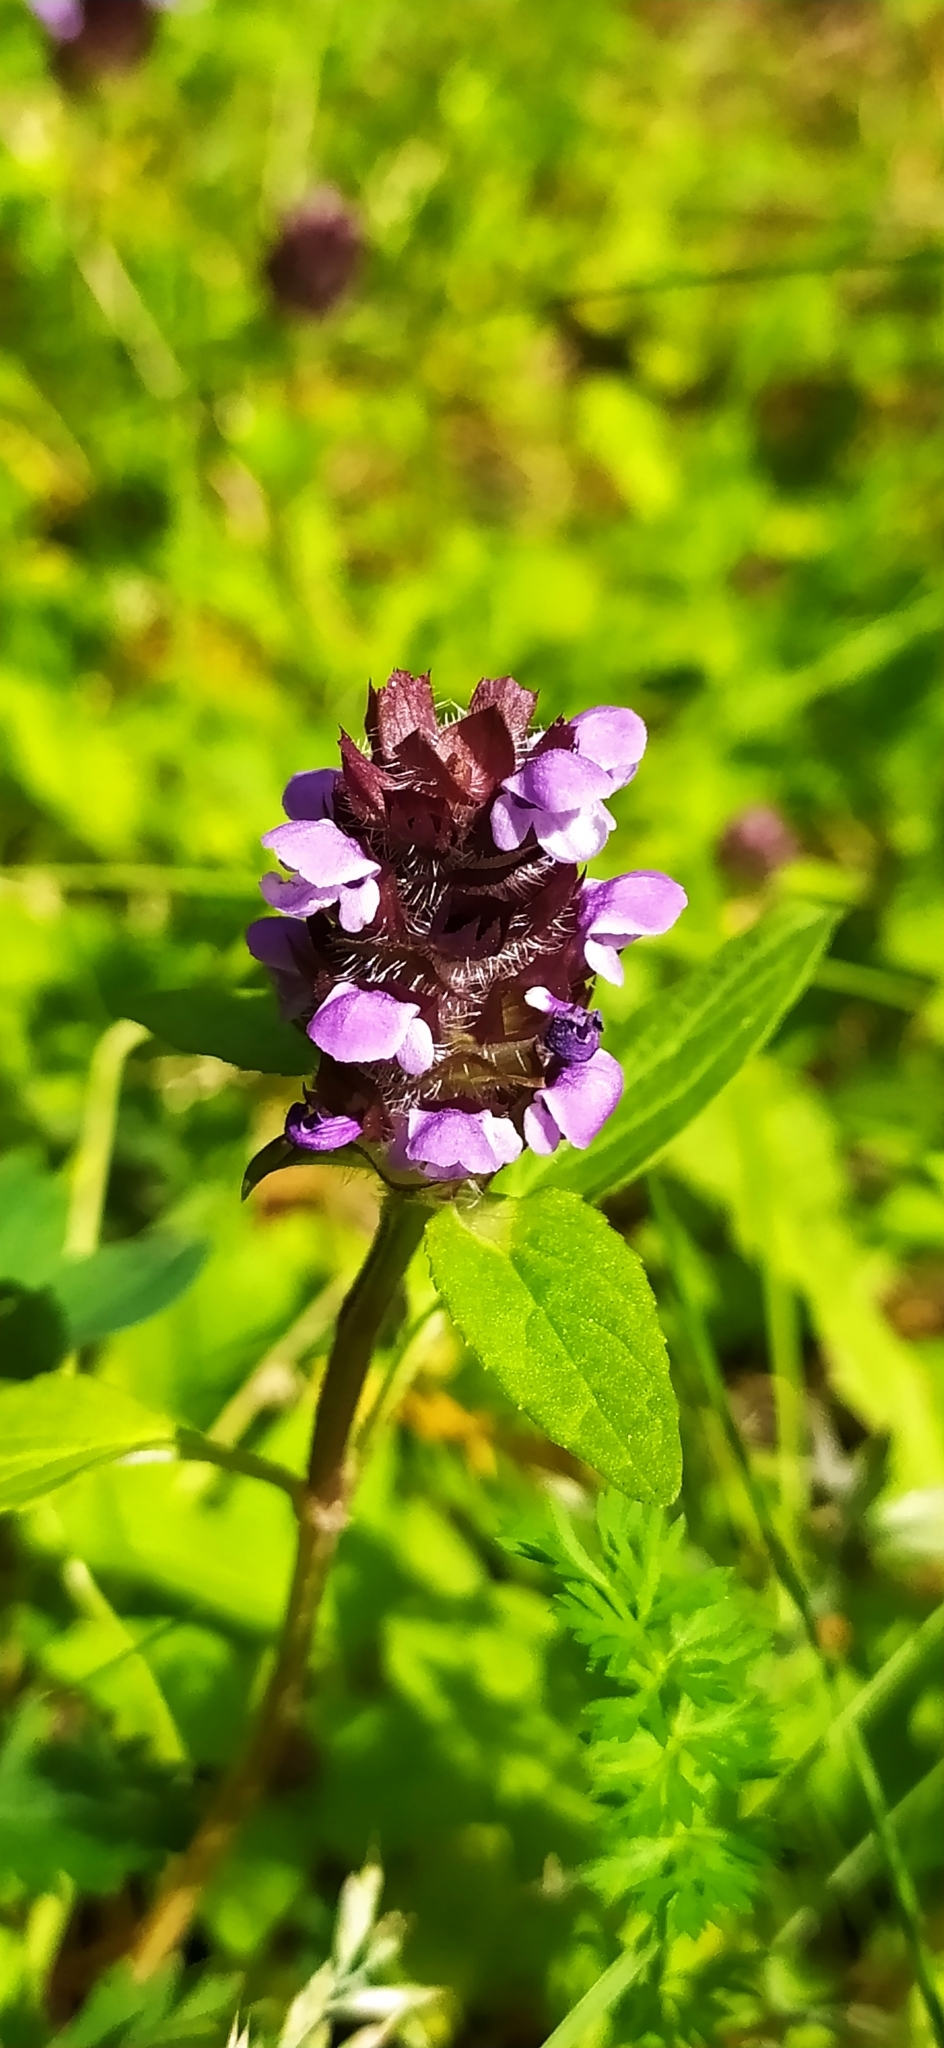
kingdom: Plantae
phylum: Tracheophyta
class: Magnoliopsida
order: Lamiales
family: Lamiaceae
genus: Prunella
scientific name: Prunella vulgaris
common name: Heal-all
